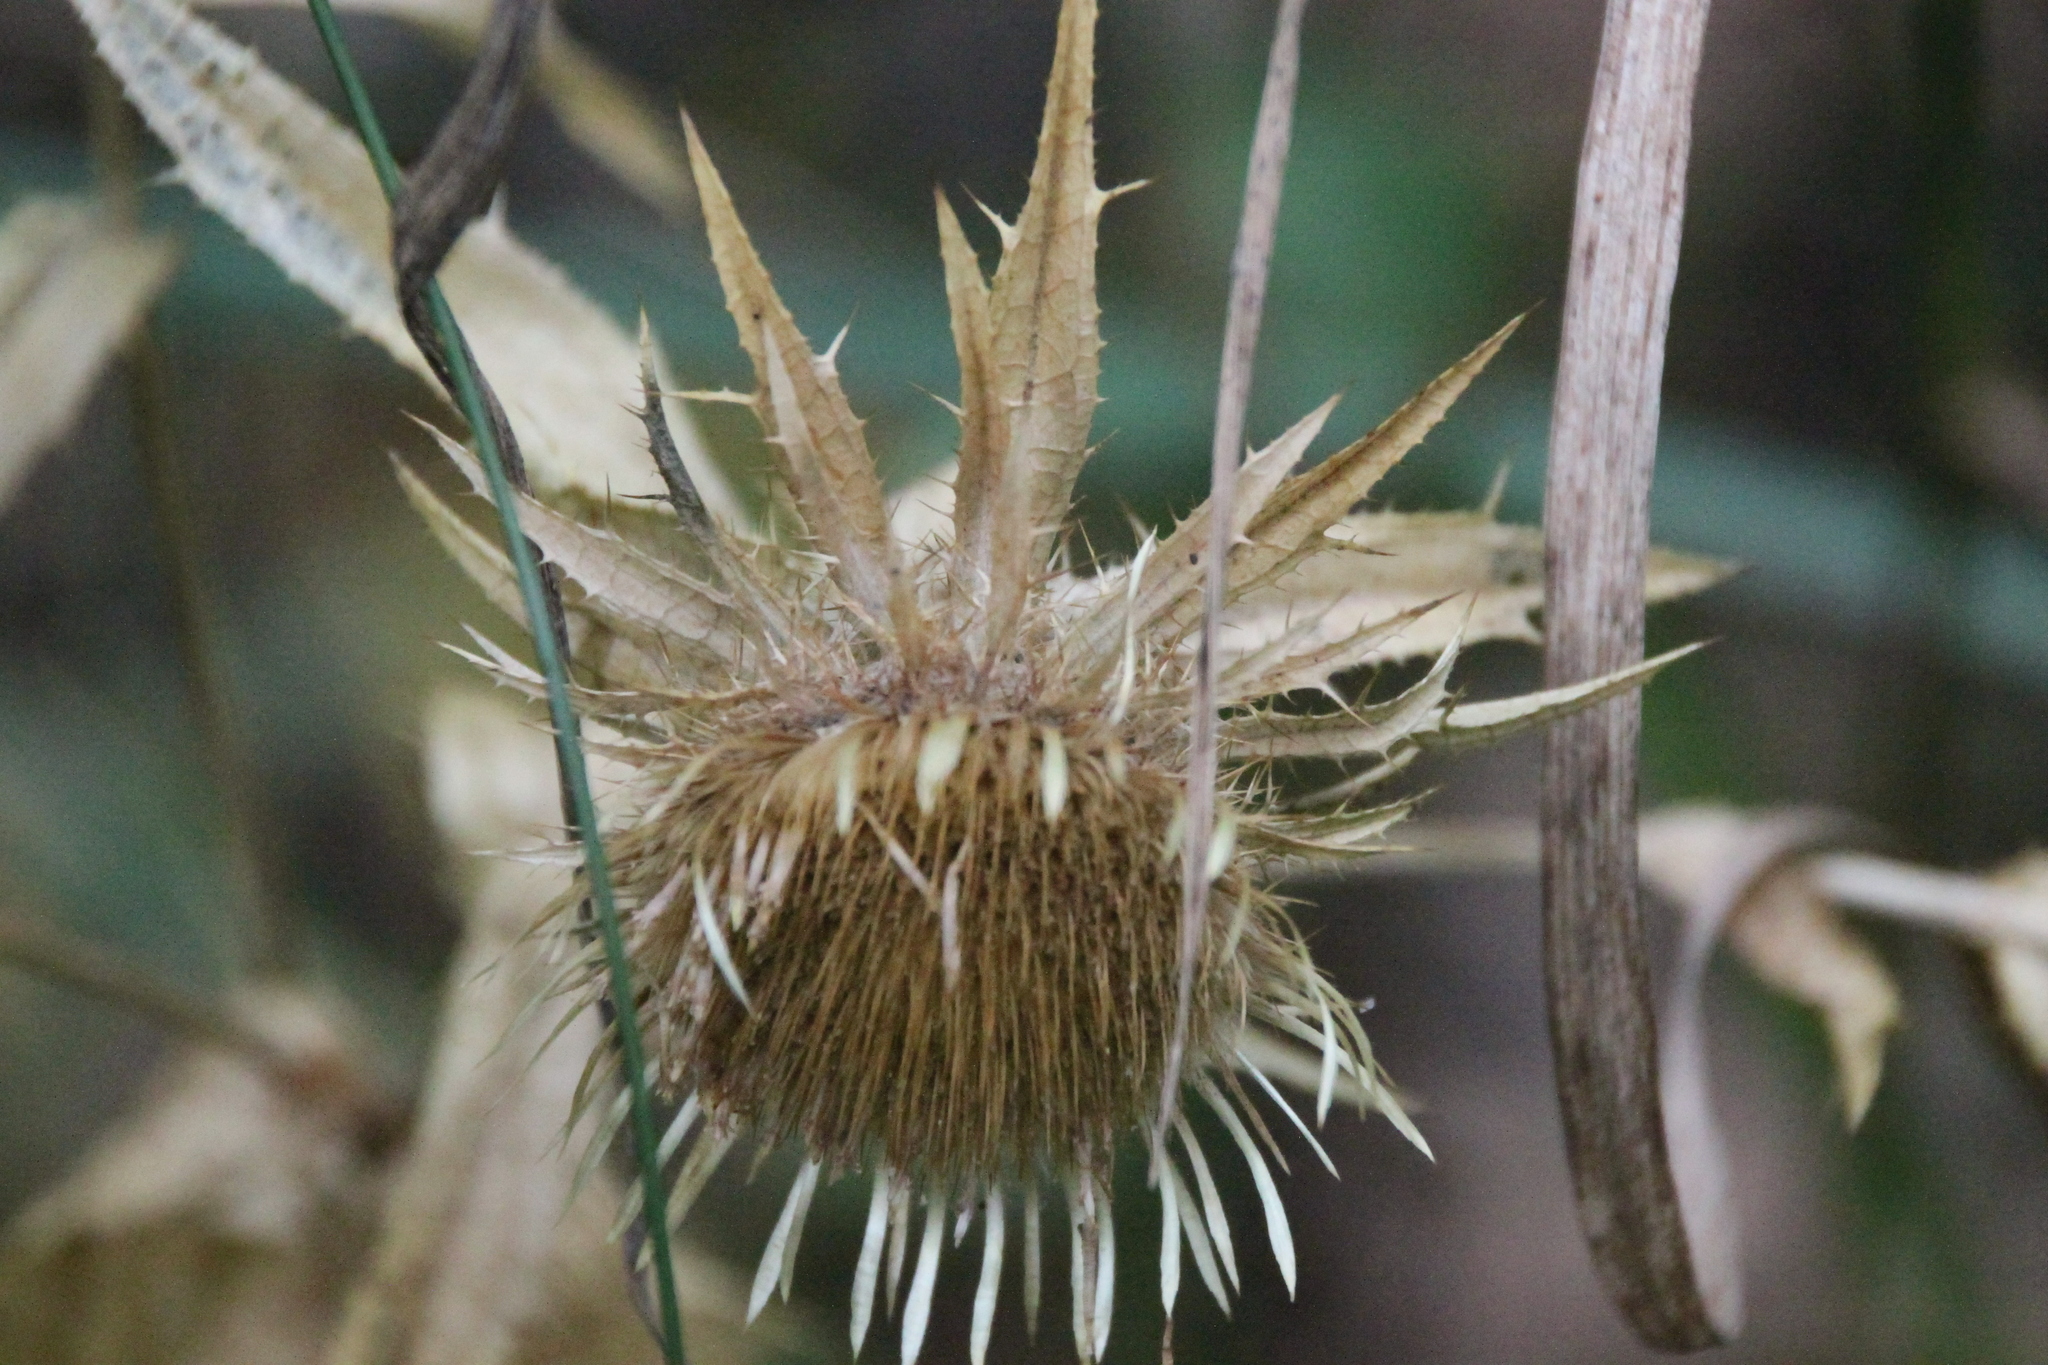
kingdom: Plantae
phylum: Tracheophyta
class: Magnoliopsida
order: Asterales
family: Asteraceae
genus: Carlina
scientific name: Carlina biebersteinii
